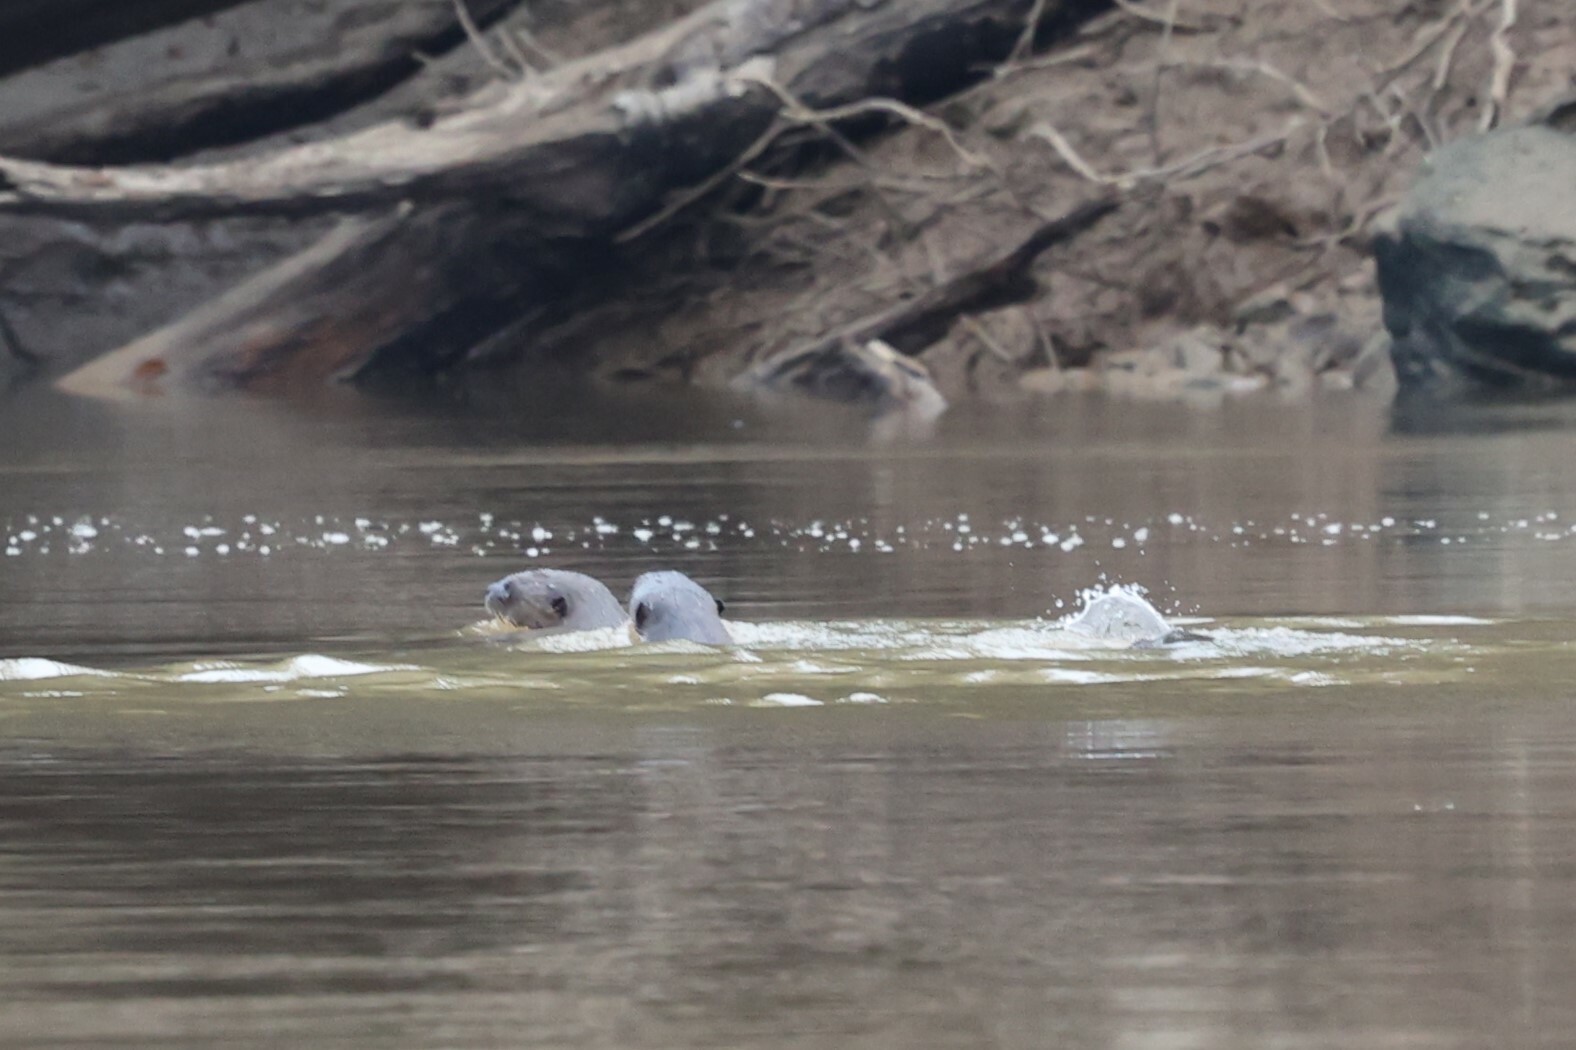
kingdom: Animalia
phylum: Chordata
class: Mammalia
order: Carnivora
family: Mustelidae
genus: Pteronura
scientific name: Pteronura brasiliensis
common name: Giant otter
